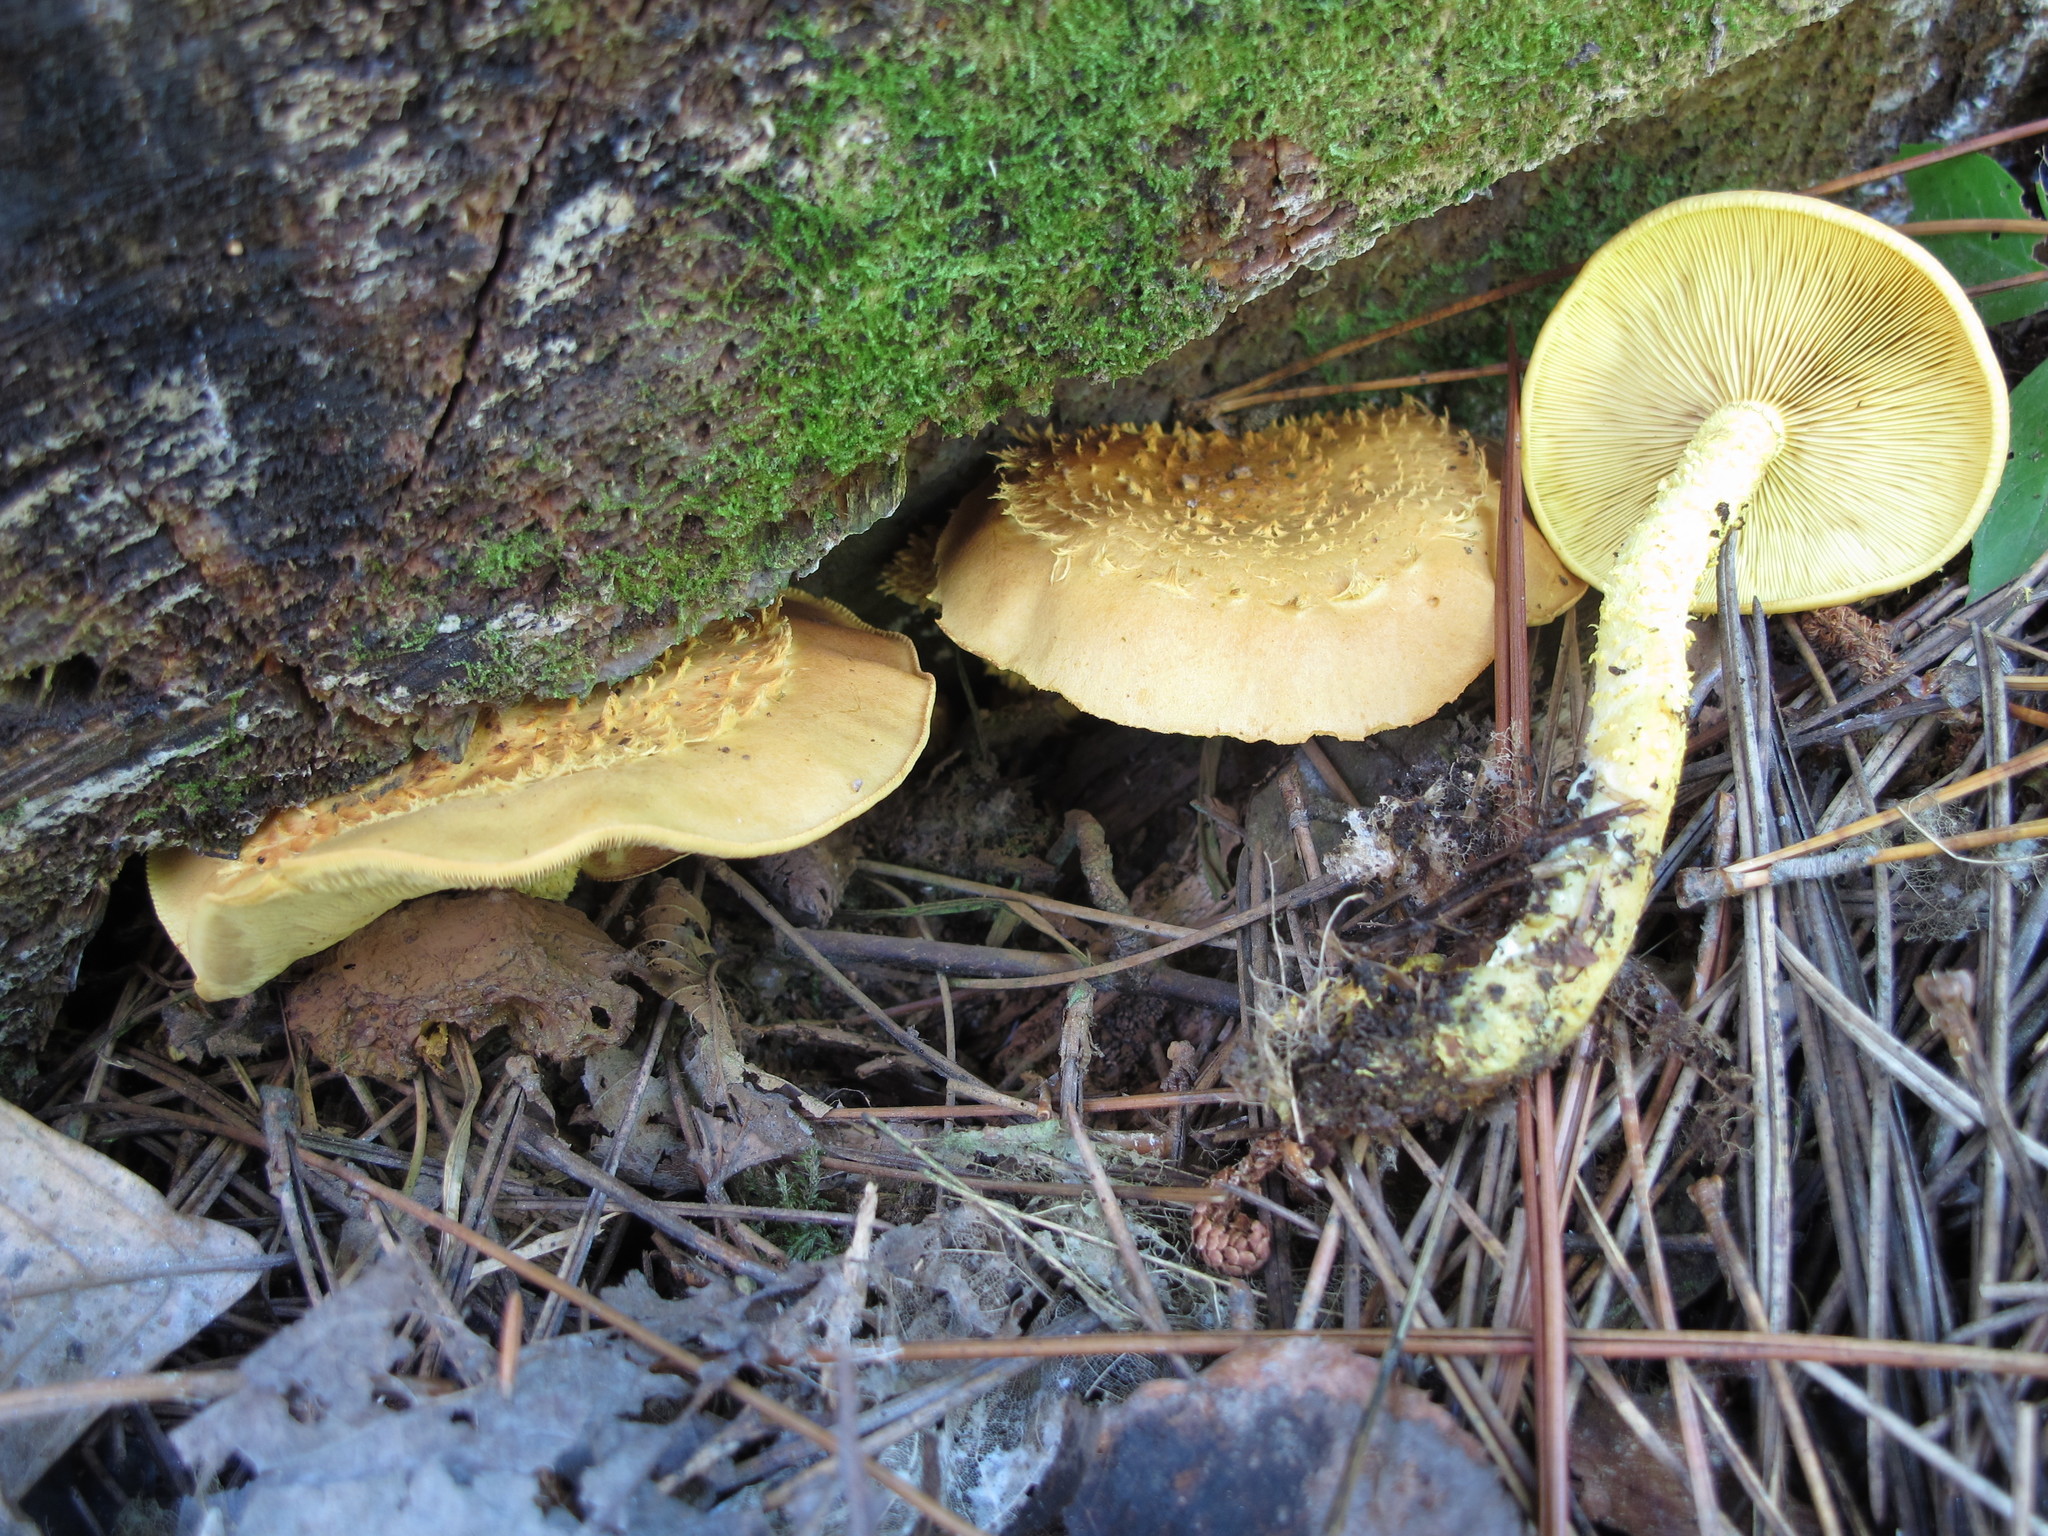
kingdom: Fungi
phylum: Basidiomycota
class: Agaricomycetes
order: Agaricales
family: Strophariaceae
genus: Pholiota
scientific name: Pholiota flammans
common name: Flaming scalycap
